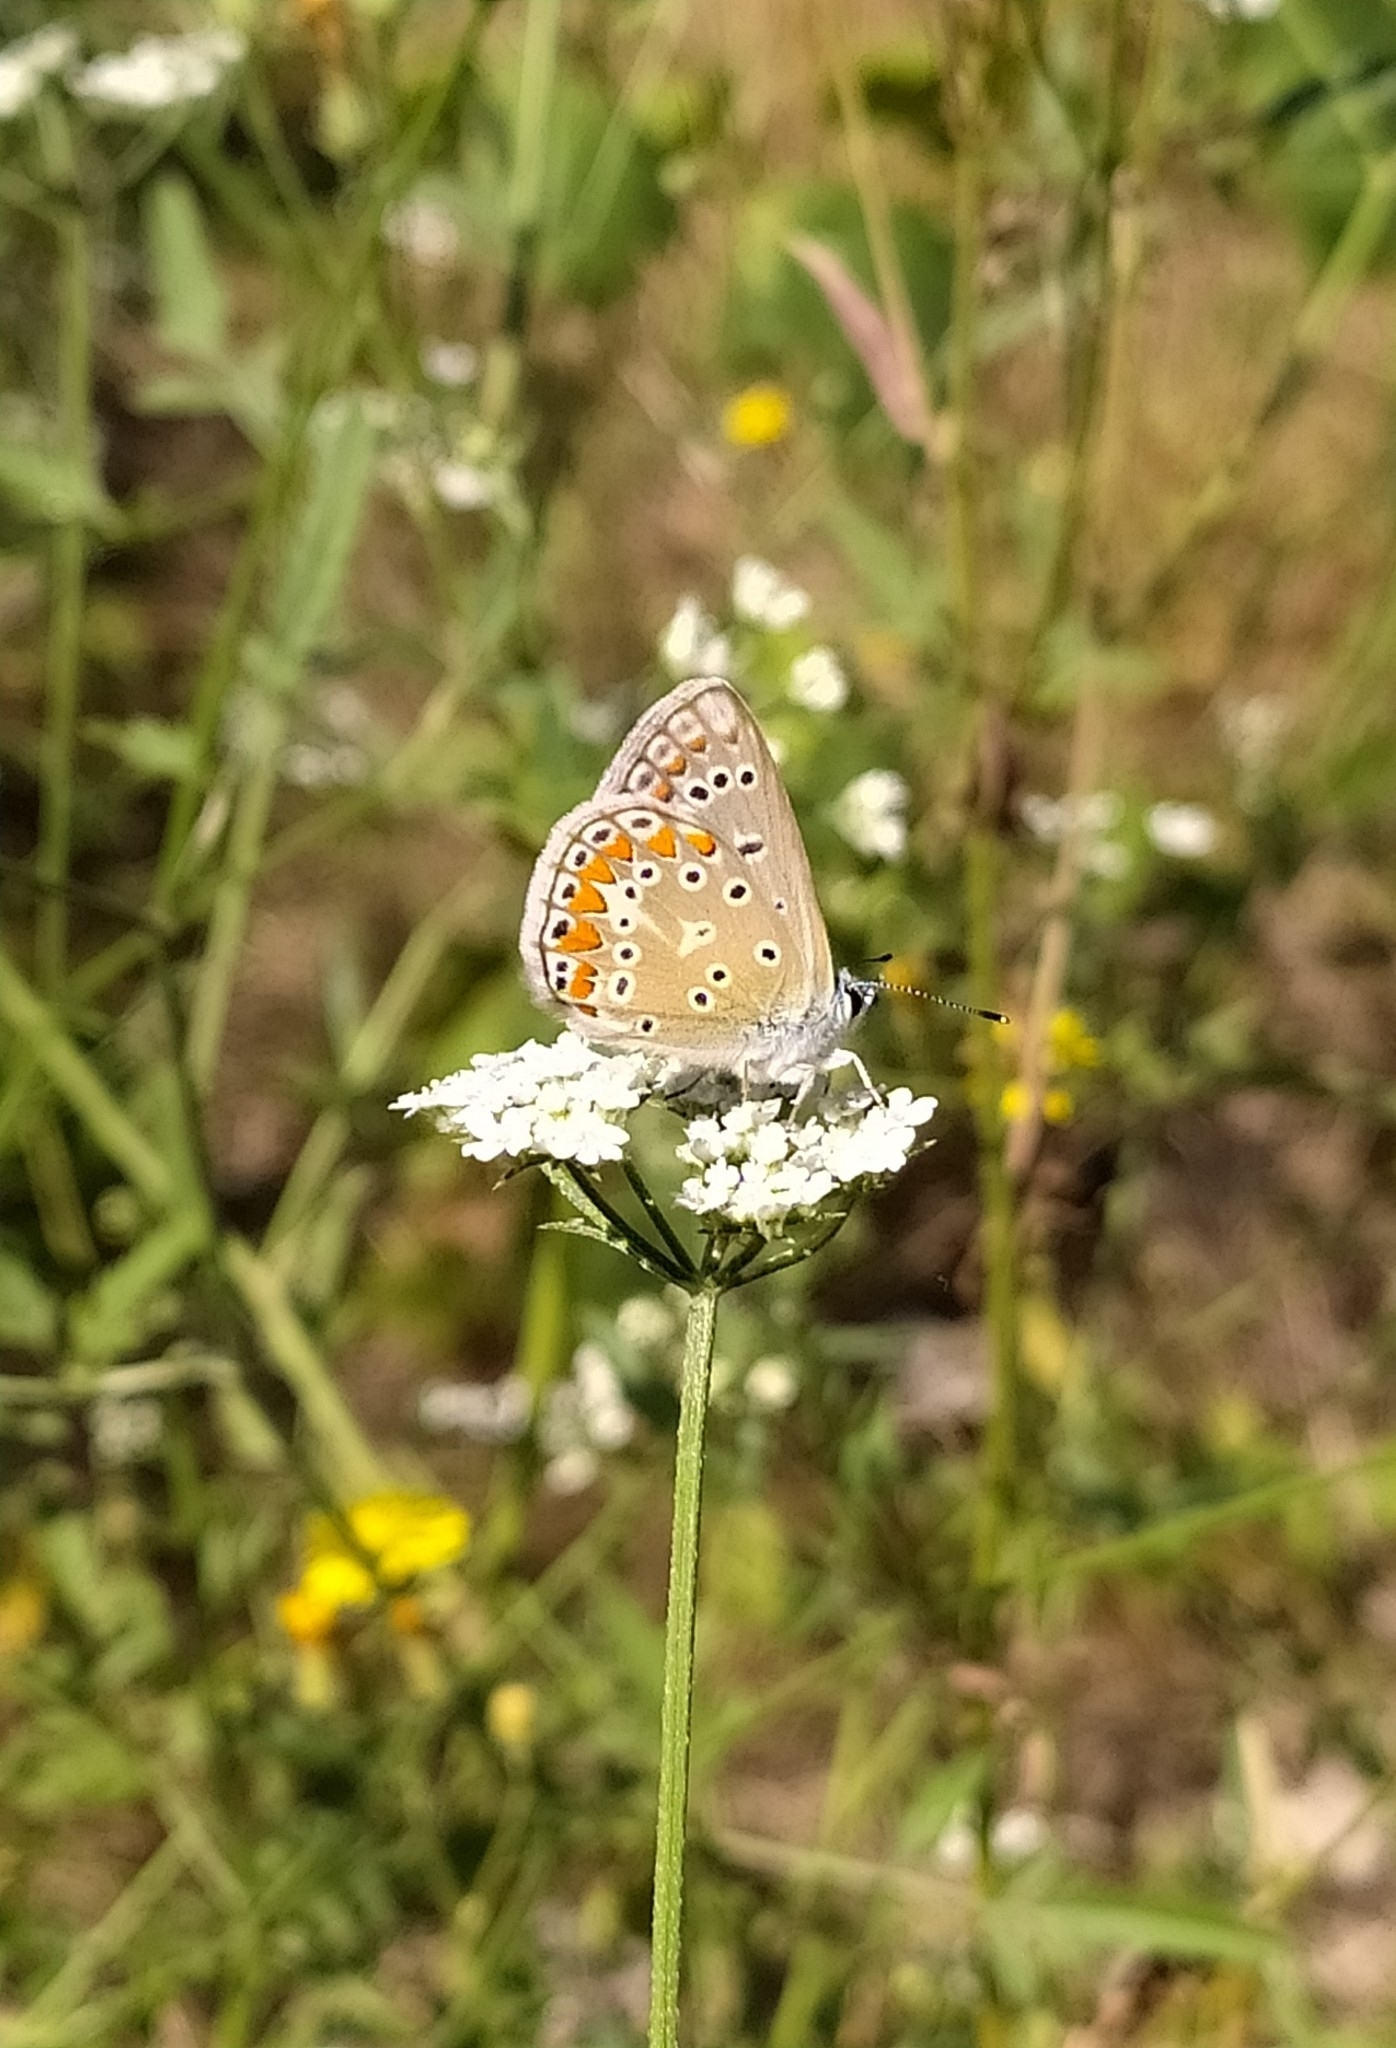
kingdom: Animalia
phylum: Arthropoda
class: Insecta
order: Lepidoptera
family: Lycaenidae
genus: Polyommatus
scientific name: Polyommatus icarus
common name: Common blue
